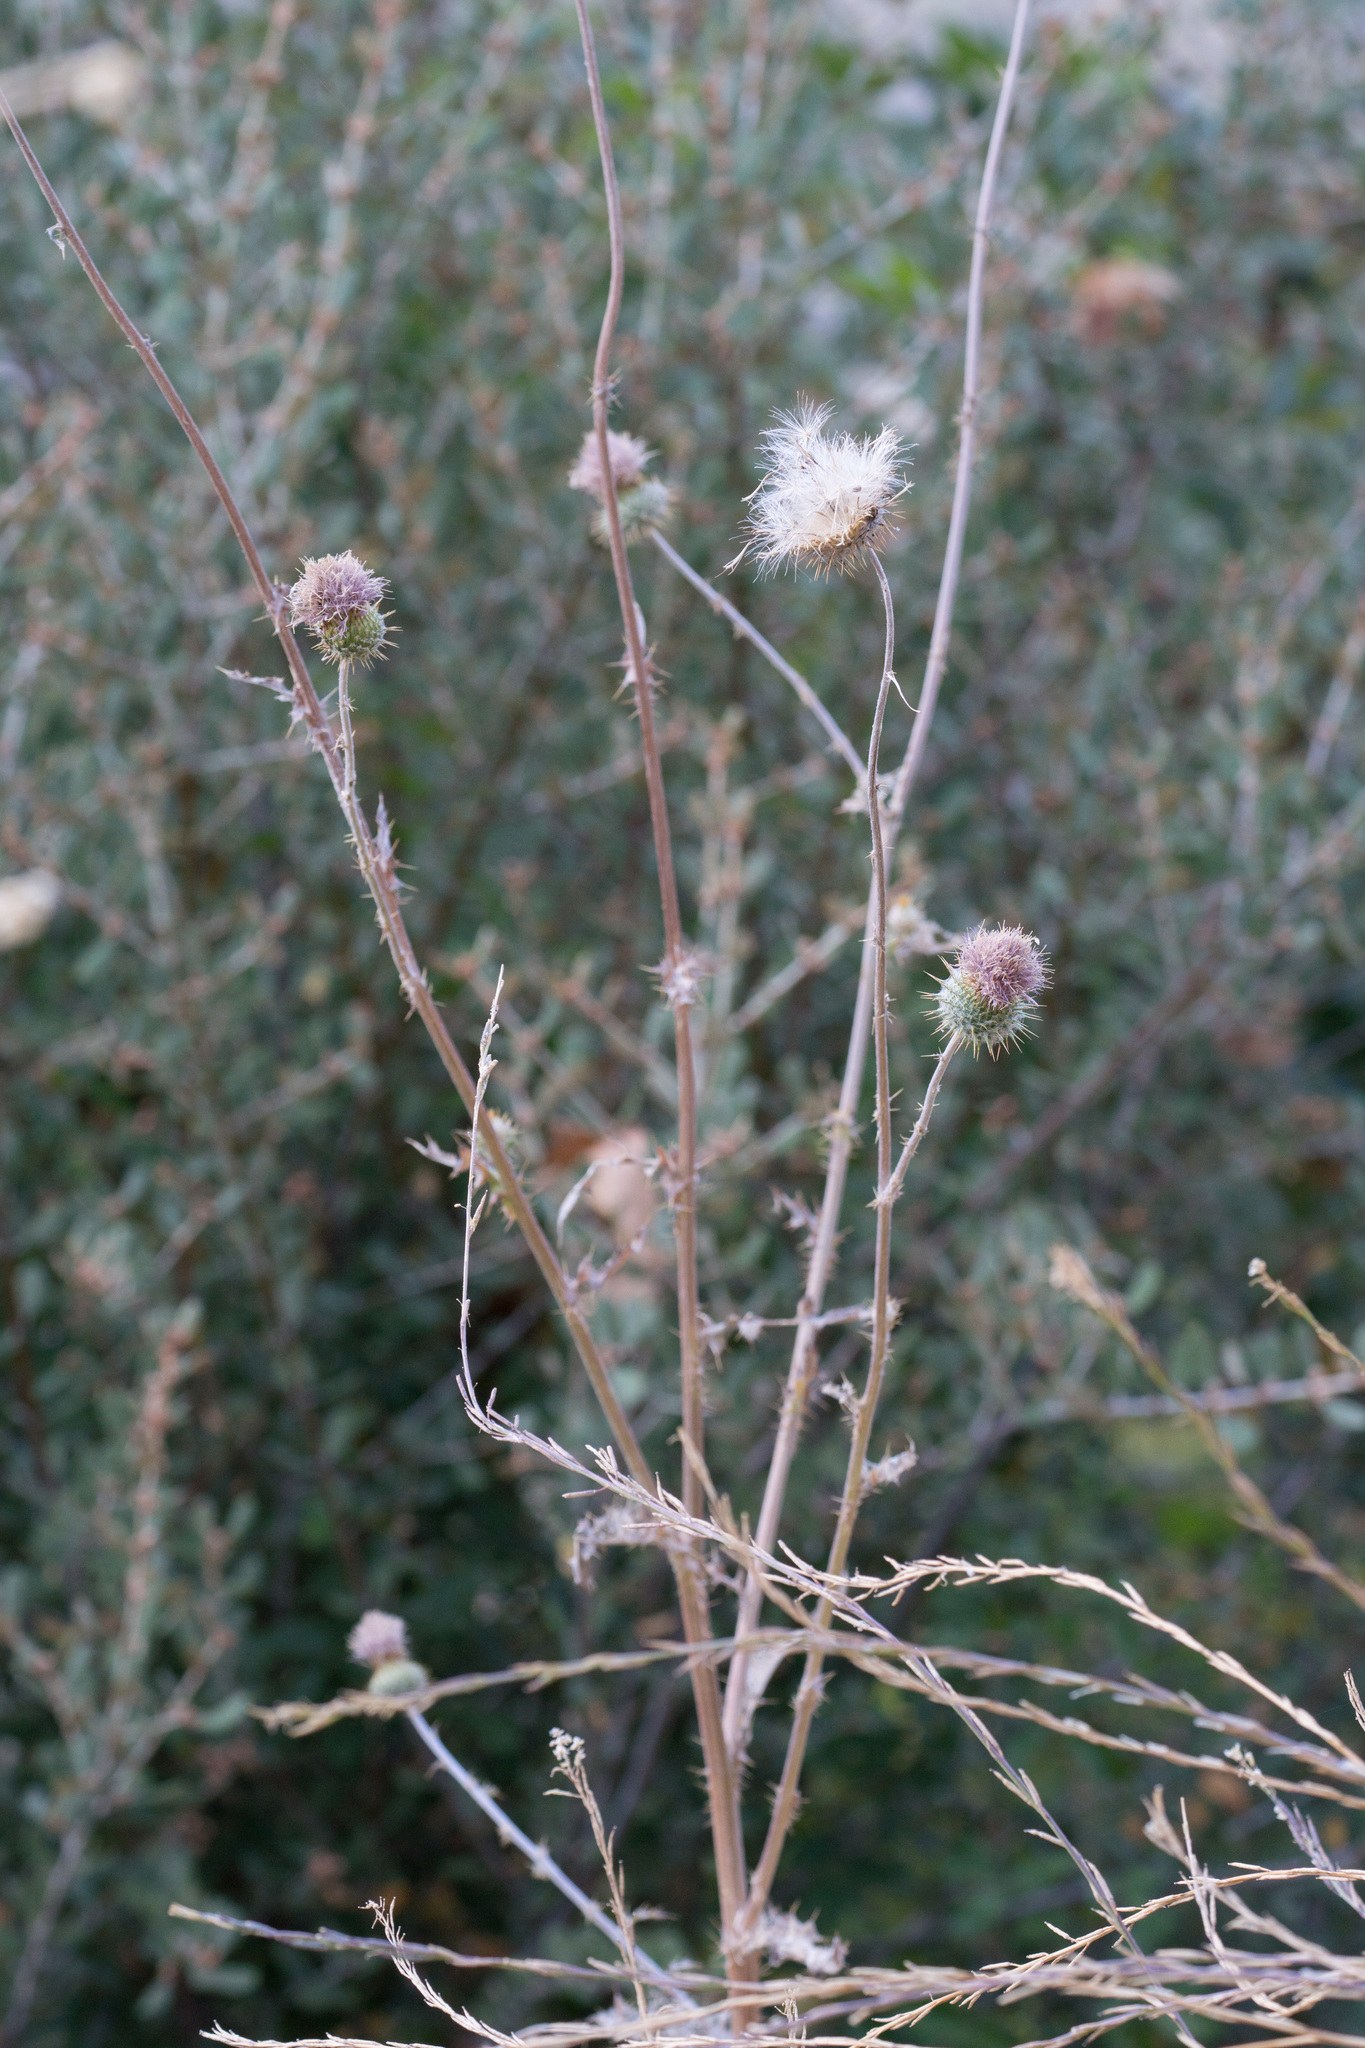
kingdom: Plantae
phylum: Tracheophyta
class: Magnoliopsida
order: Asterales
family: Asteraceae
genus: Cirsium
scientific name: Cirsium occidentale
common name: Western thistle
